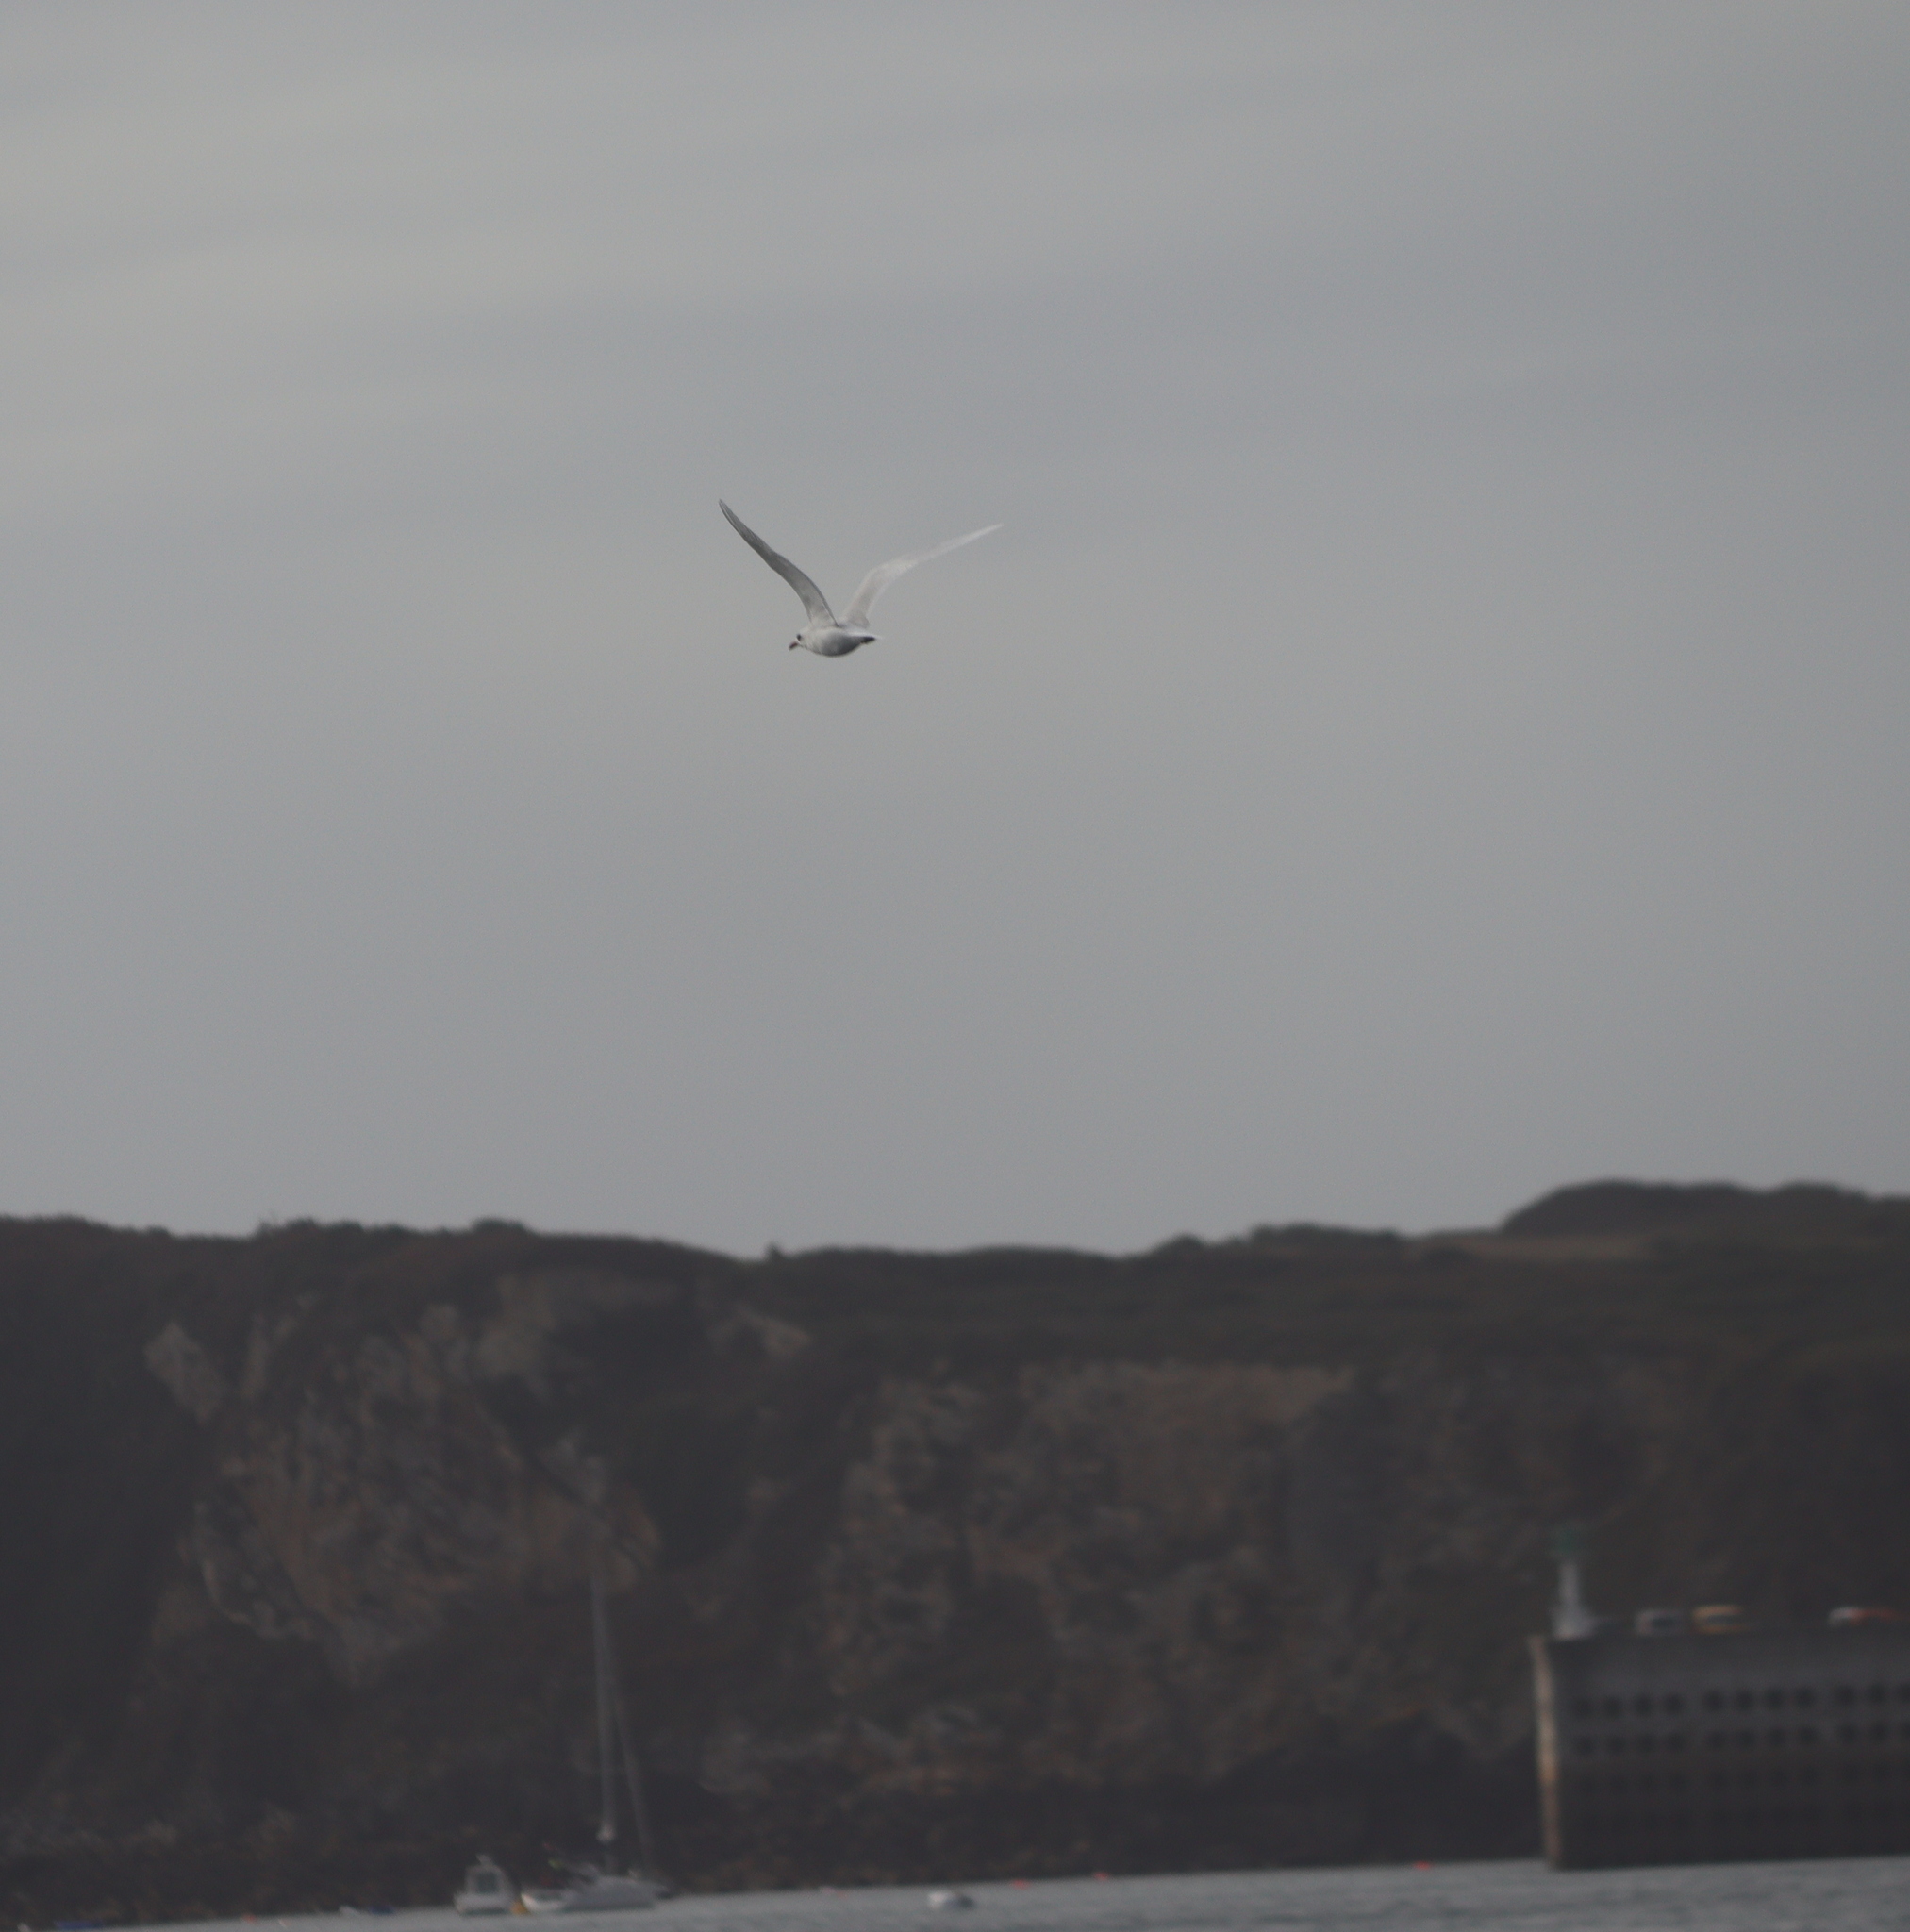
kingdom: Animalia
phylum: Chordata
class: Aves
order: Charadriiformes
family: Laridae
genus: Ichthyaetus
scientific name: Ichthyaetus melanocephalus
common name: Mediterranean gull
